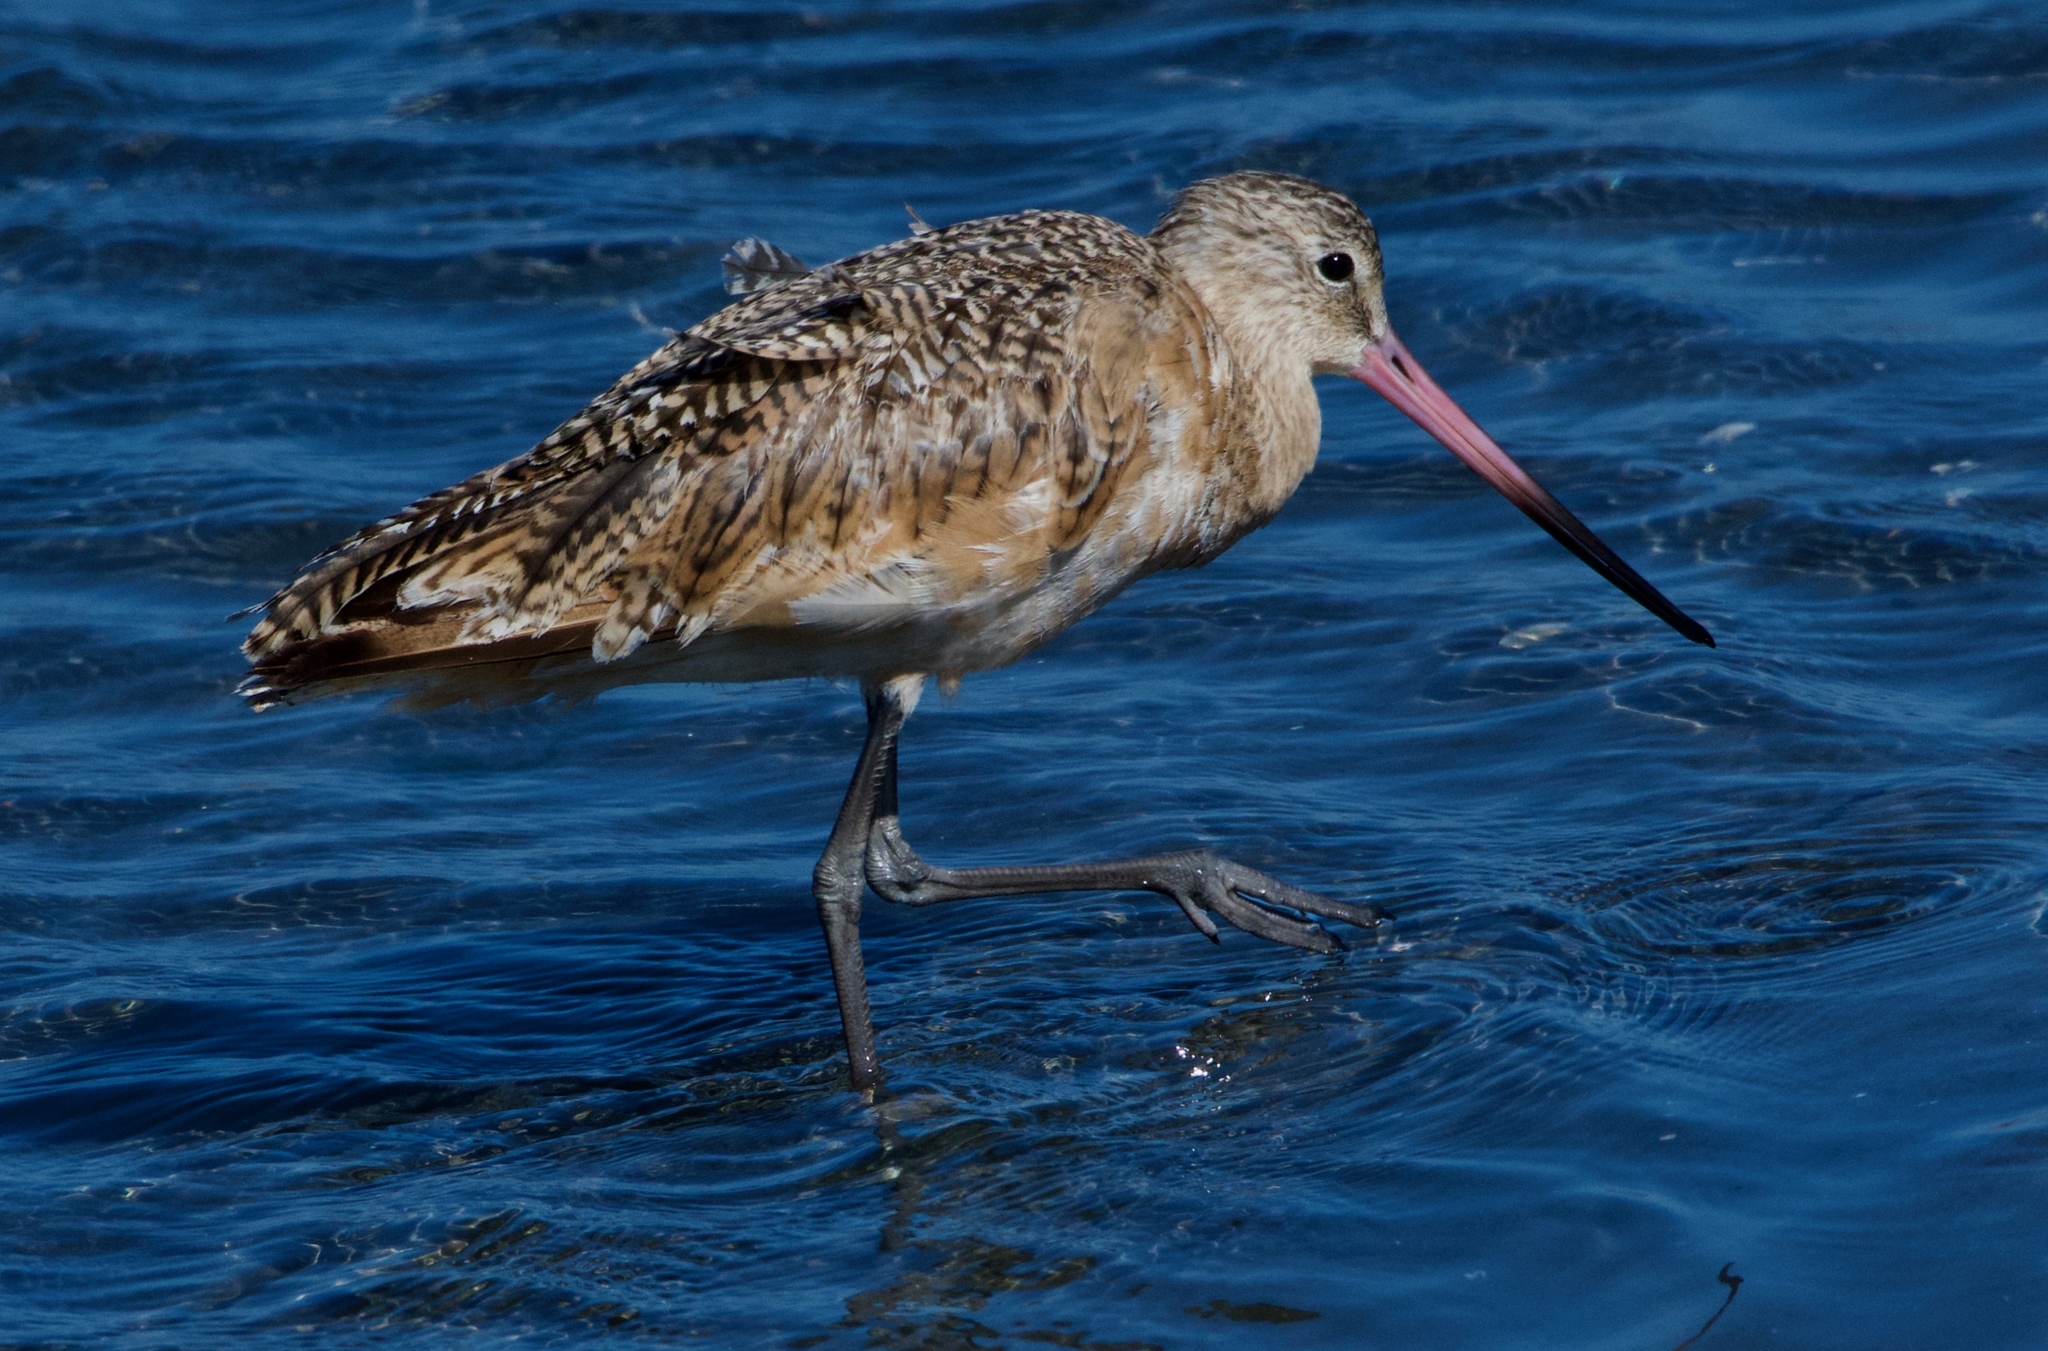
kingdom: Animalia
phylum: Chordata
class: Aves
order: Charadriiformes
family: Scolopacidae
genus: Limosa
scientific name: Limosa fedoa
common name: Marbled godwit
